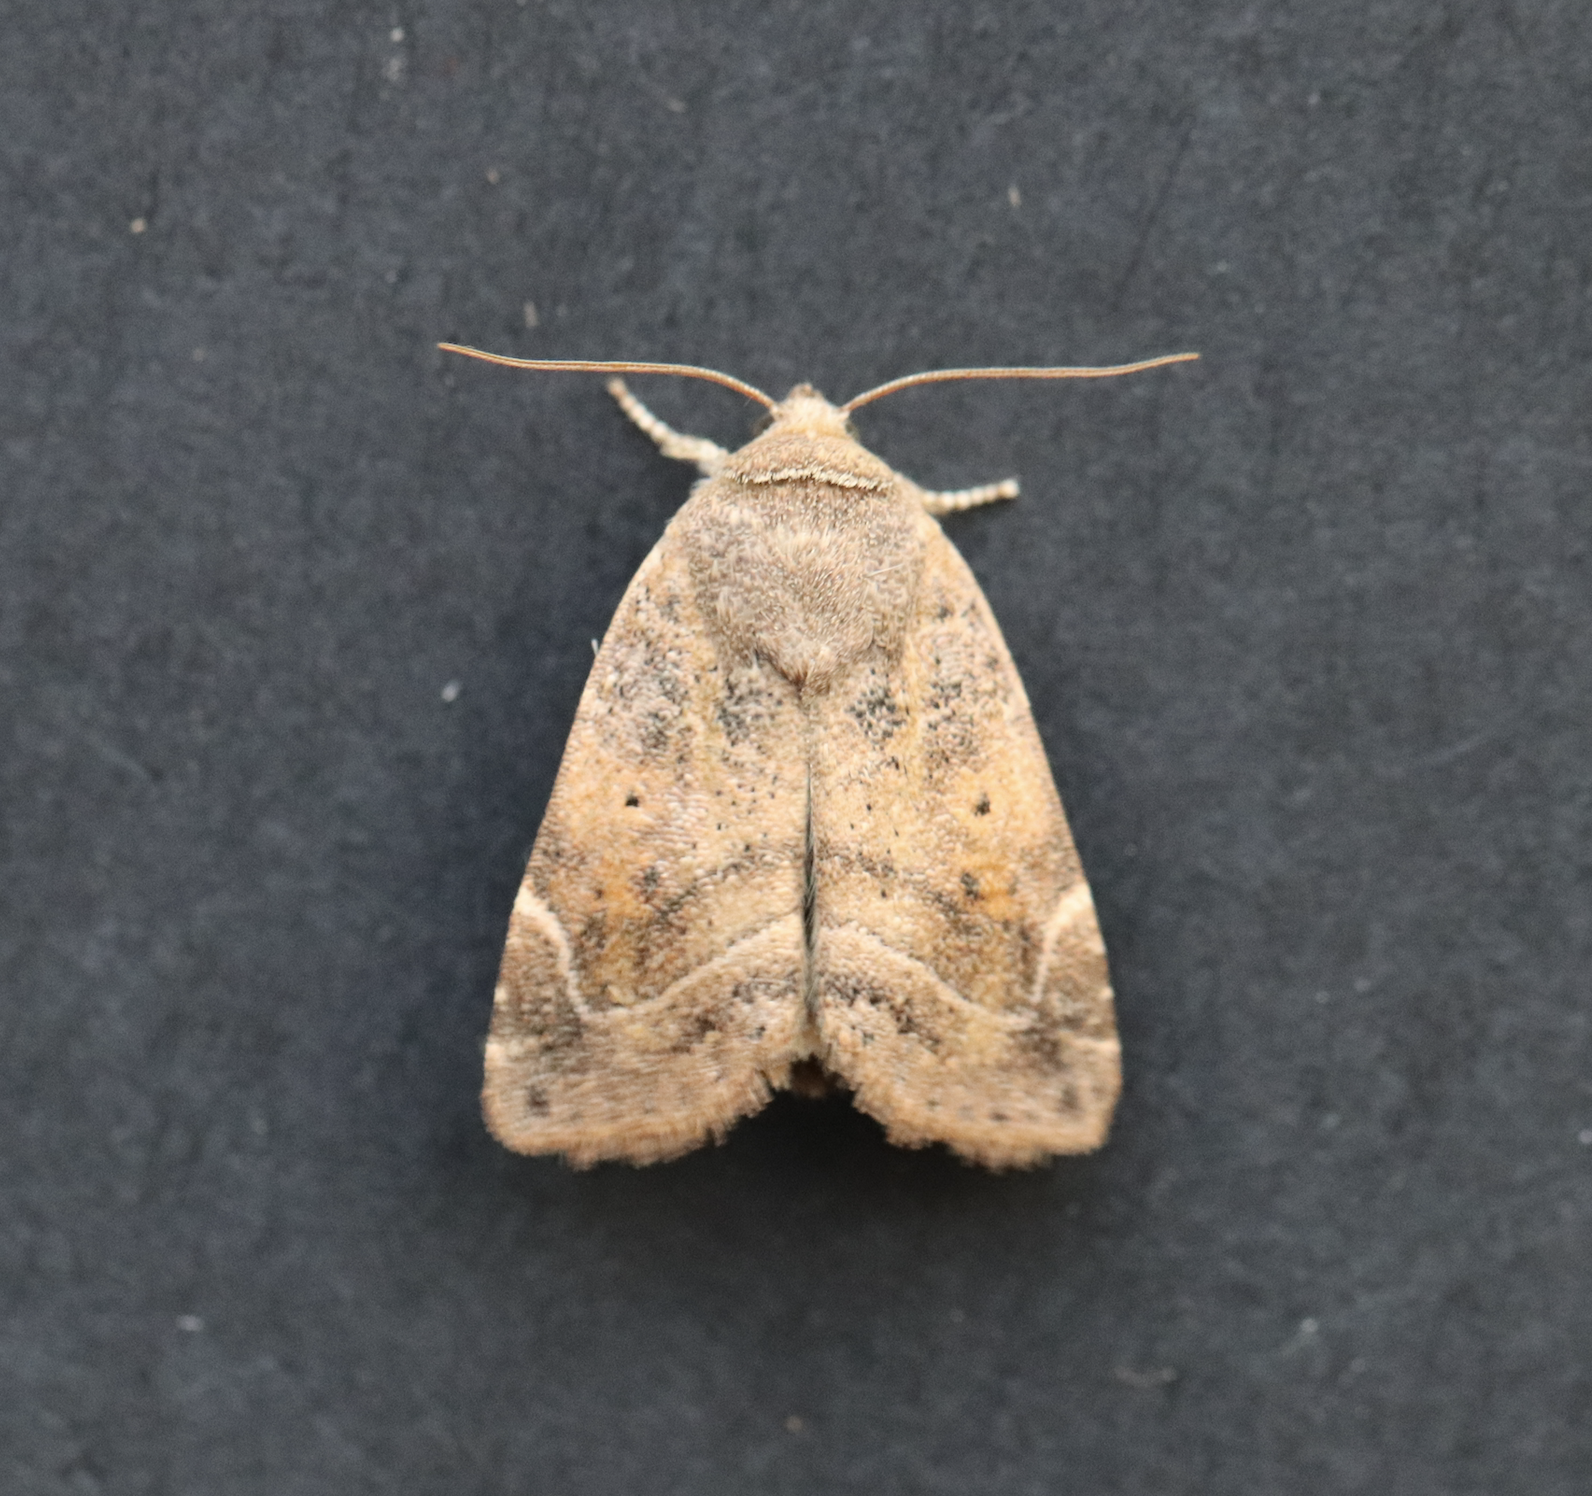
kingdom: Animalia
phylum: Arthropoda
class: Insecta
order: Lepidoptera
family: Noctuidae
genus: Cosmia
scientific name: Cosmia affinis
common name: Lesser-spotted pinion
